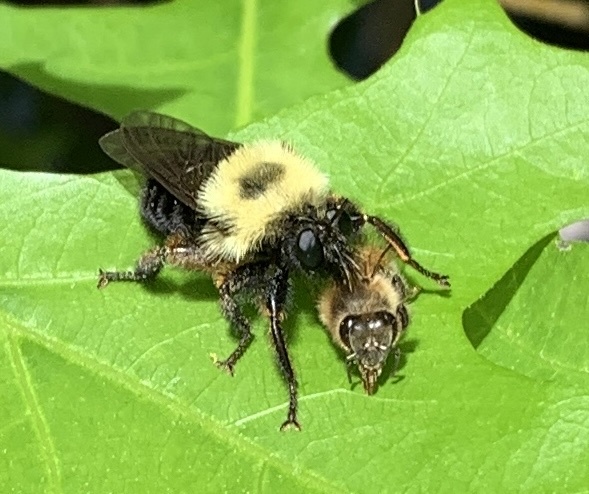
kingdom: Animalia
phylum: Arthropoda
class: Insecta
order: Diptera
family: Asilidae
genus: Laphria
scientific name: Laphria thoracica
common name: Bumble bee mimic robber fly
